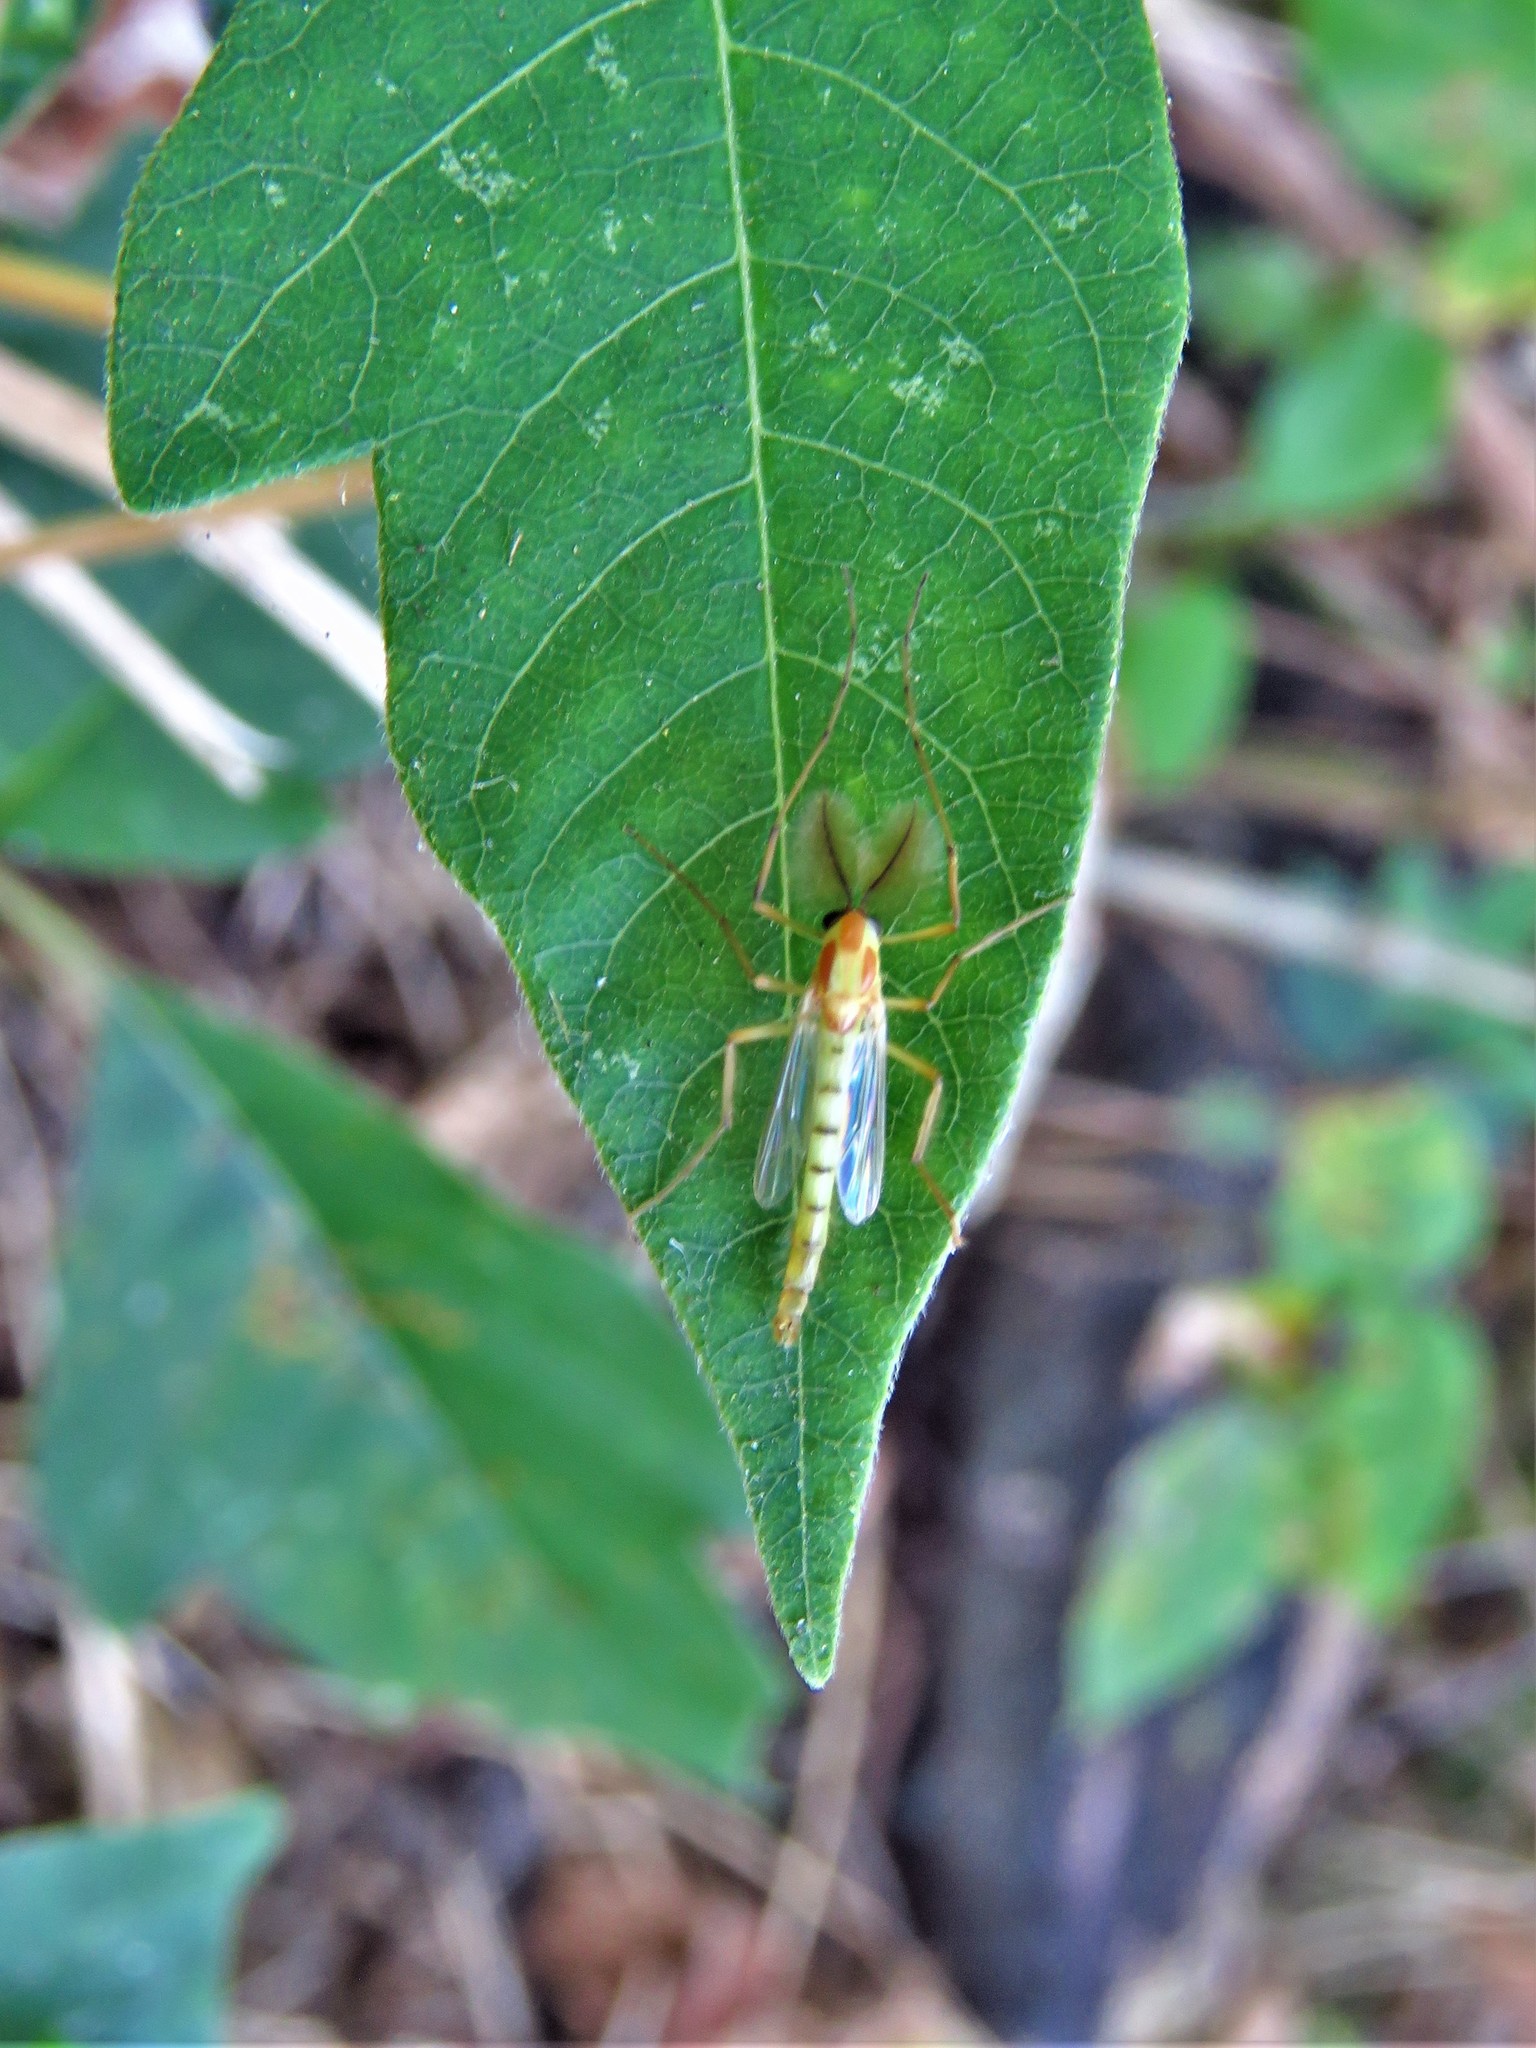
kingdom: Animalia
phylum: Arthropoda
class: Insecta
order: Diptera
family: Chironomidae
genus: Axarus
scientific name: Axarus
